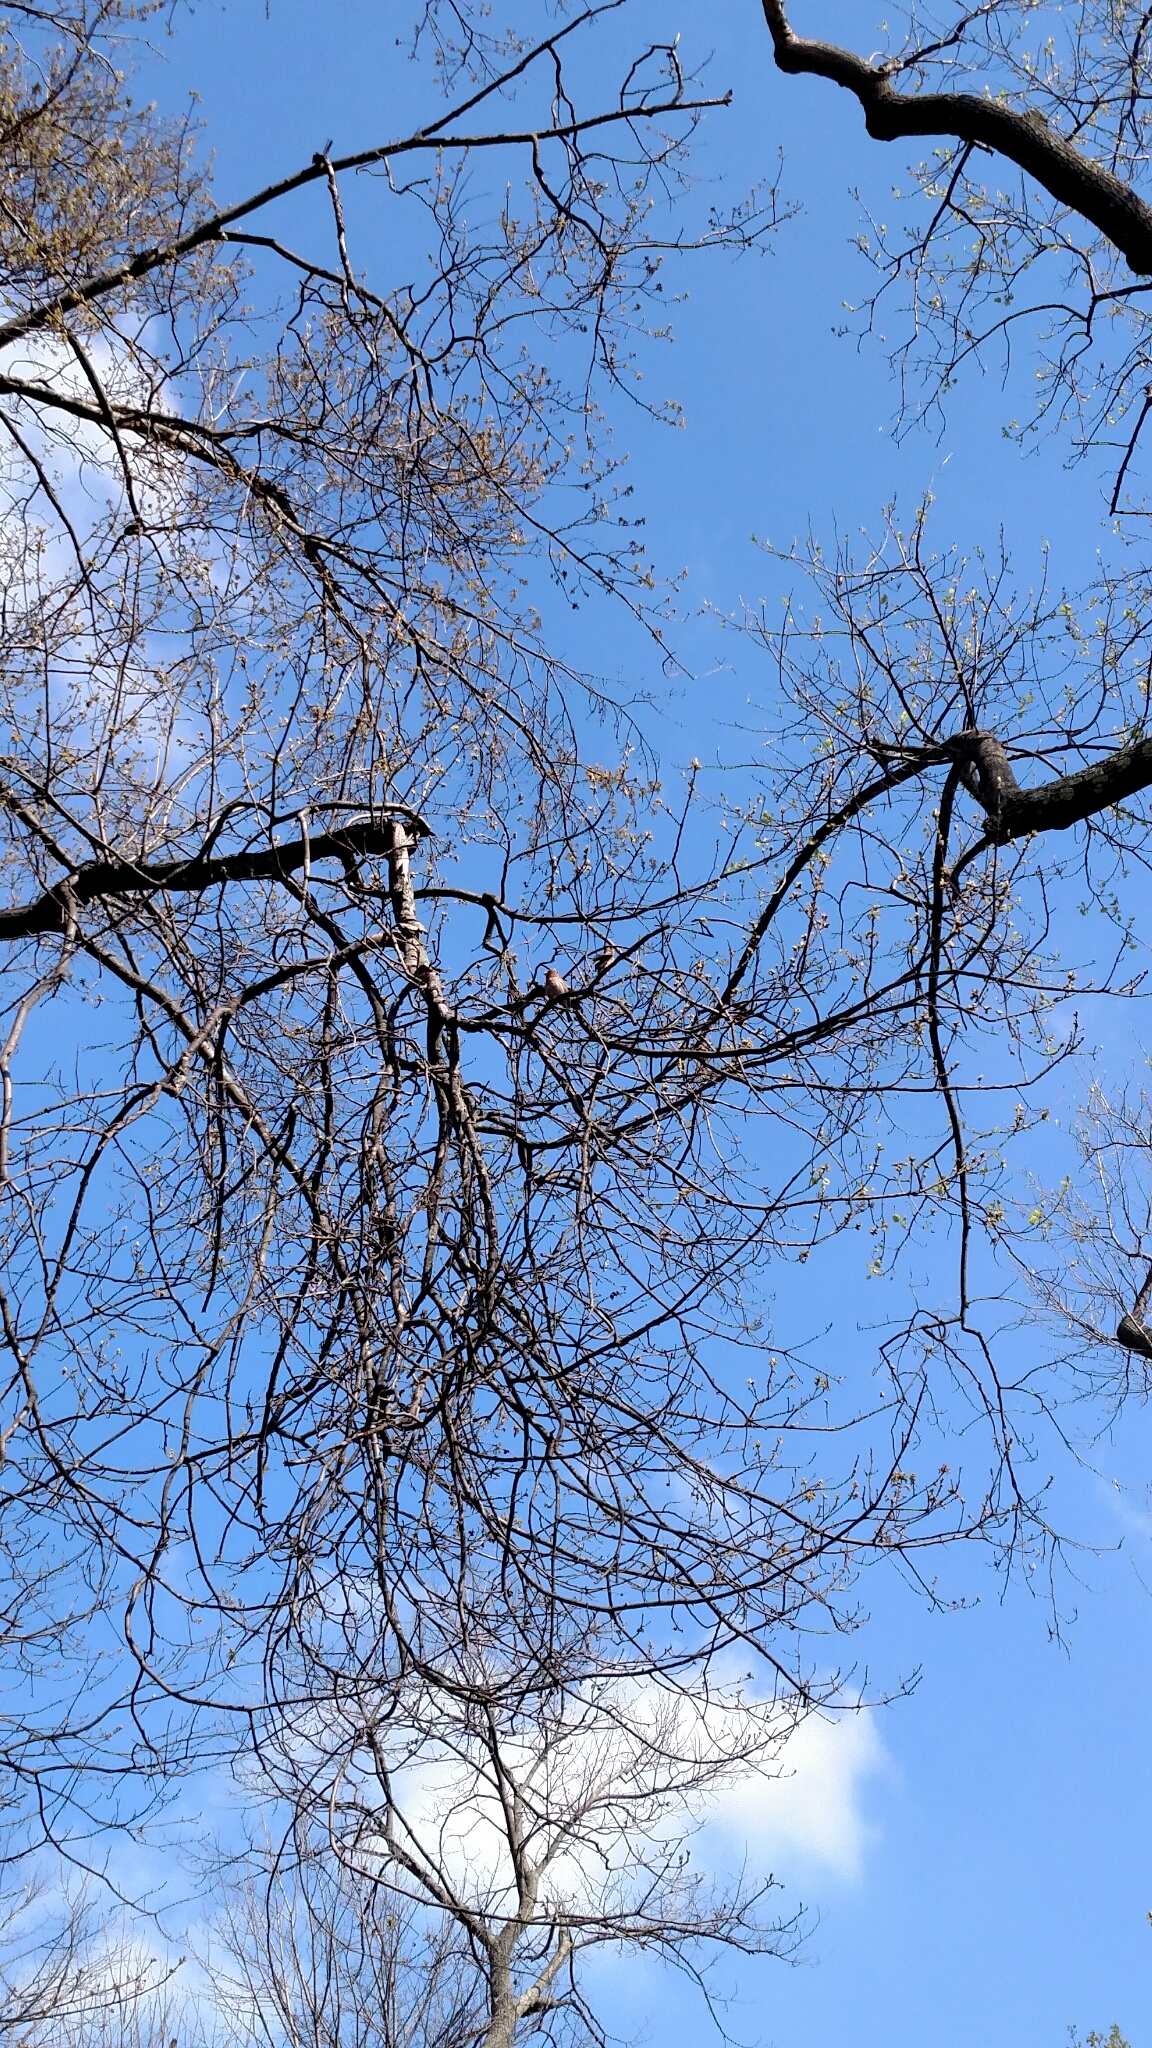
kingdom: Animalia
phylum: Chordata
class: Aves
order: Passeriformes
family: Fringillidae
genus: Haemorhous
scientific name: Haemorhous mexicanus
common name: House finch
